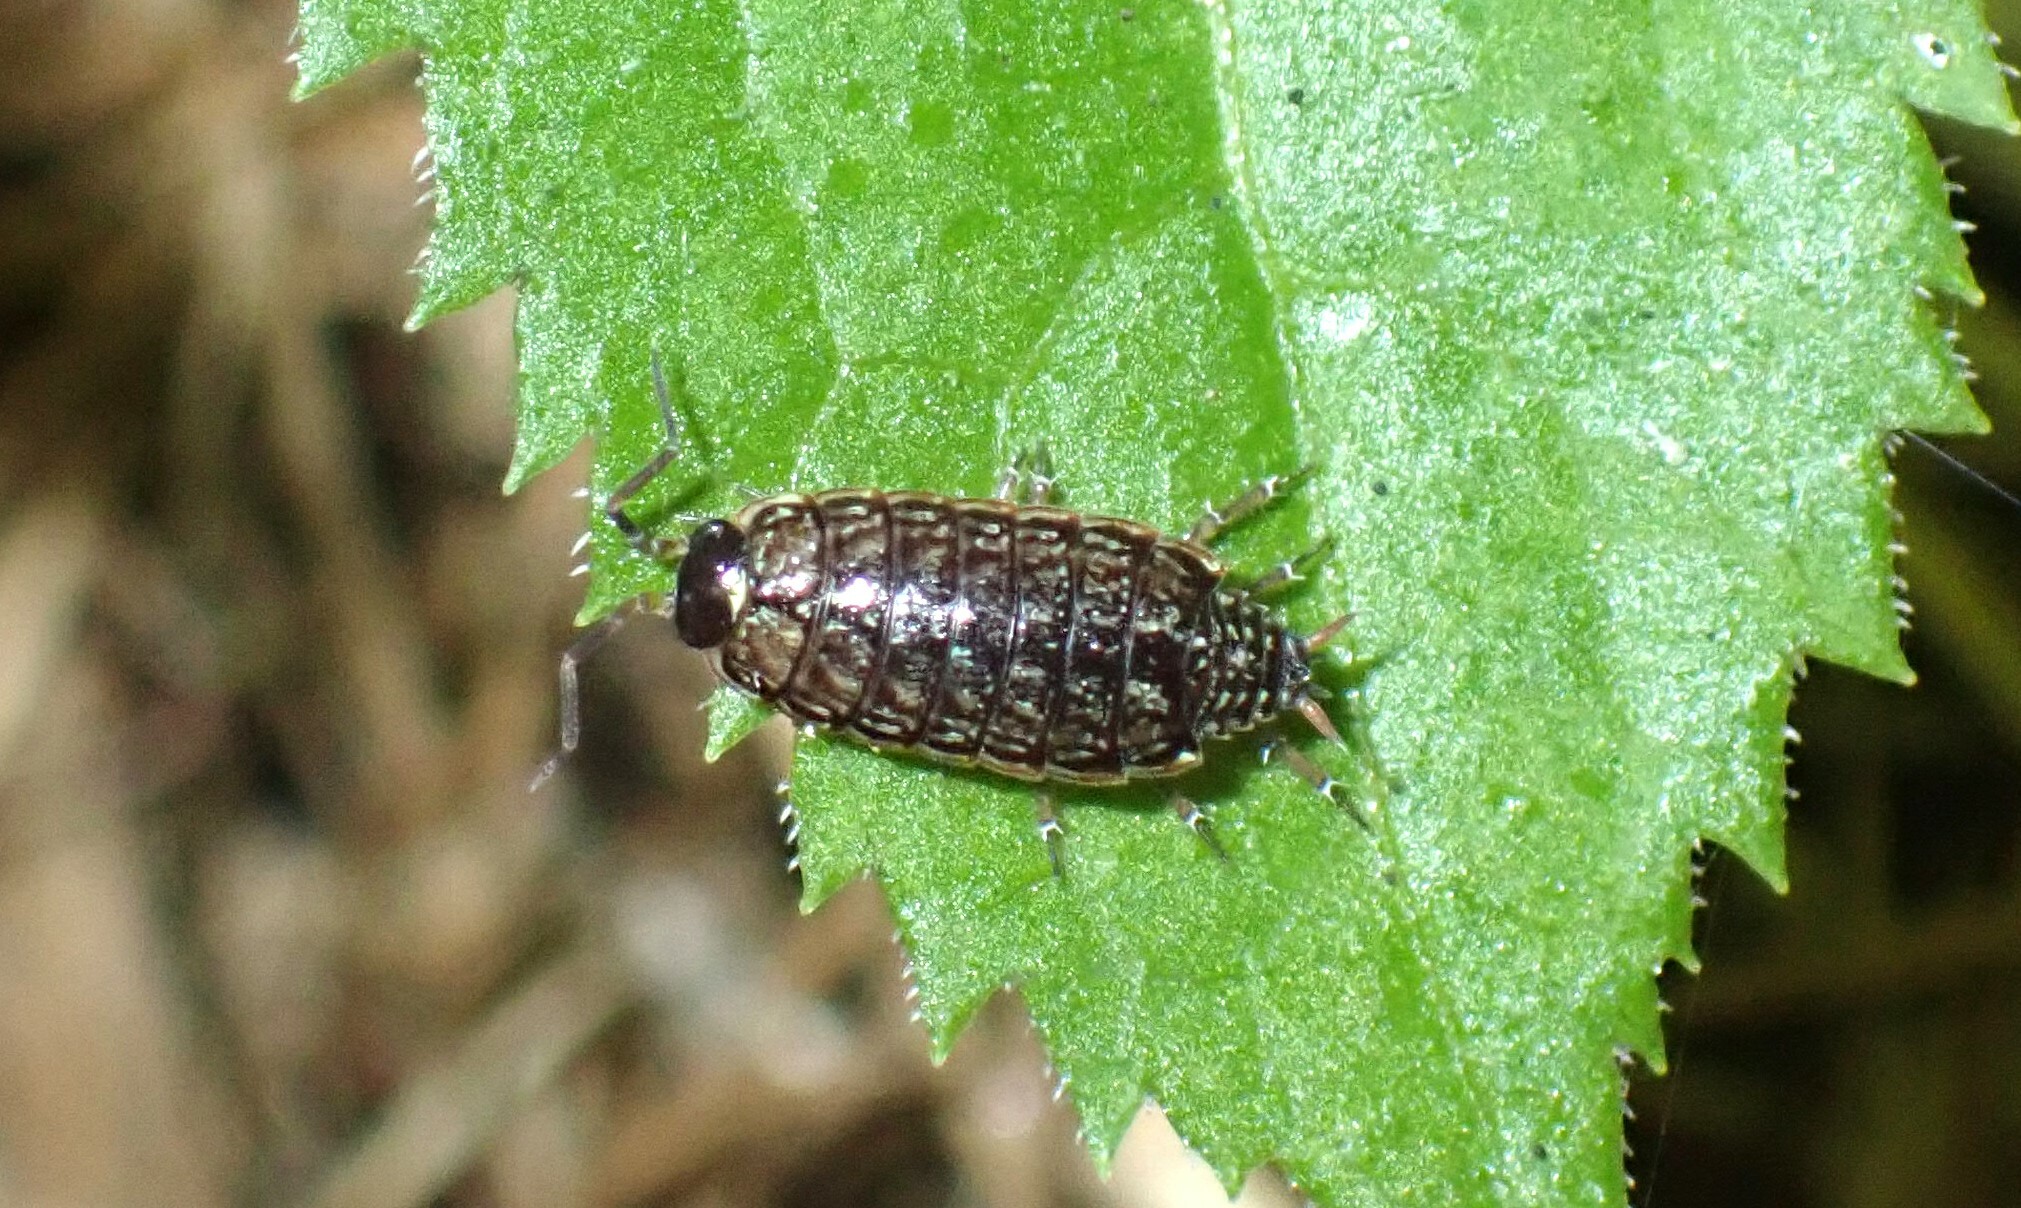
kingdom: Animalia
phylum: Arthropoda
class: Malacostraca
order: Isopoda
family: Philosciidae
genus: Philoscia
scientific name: Philoscia muscorum
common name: Common striped woodlouse
